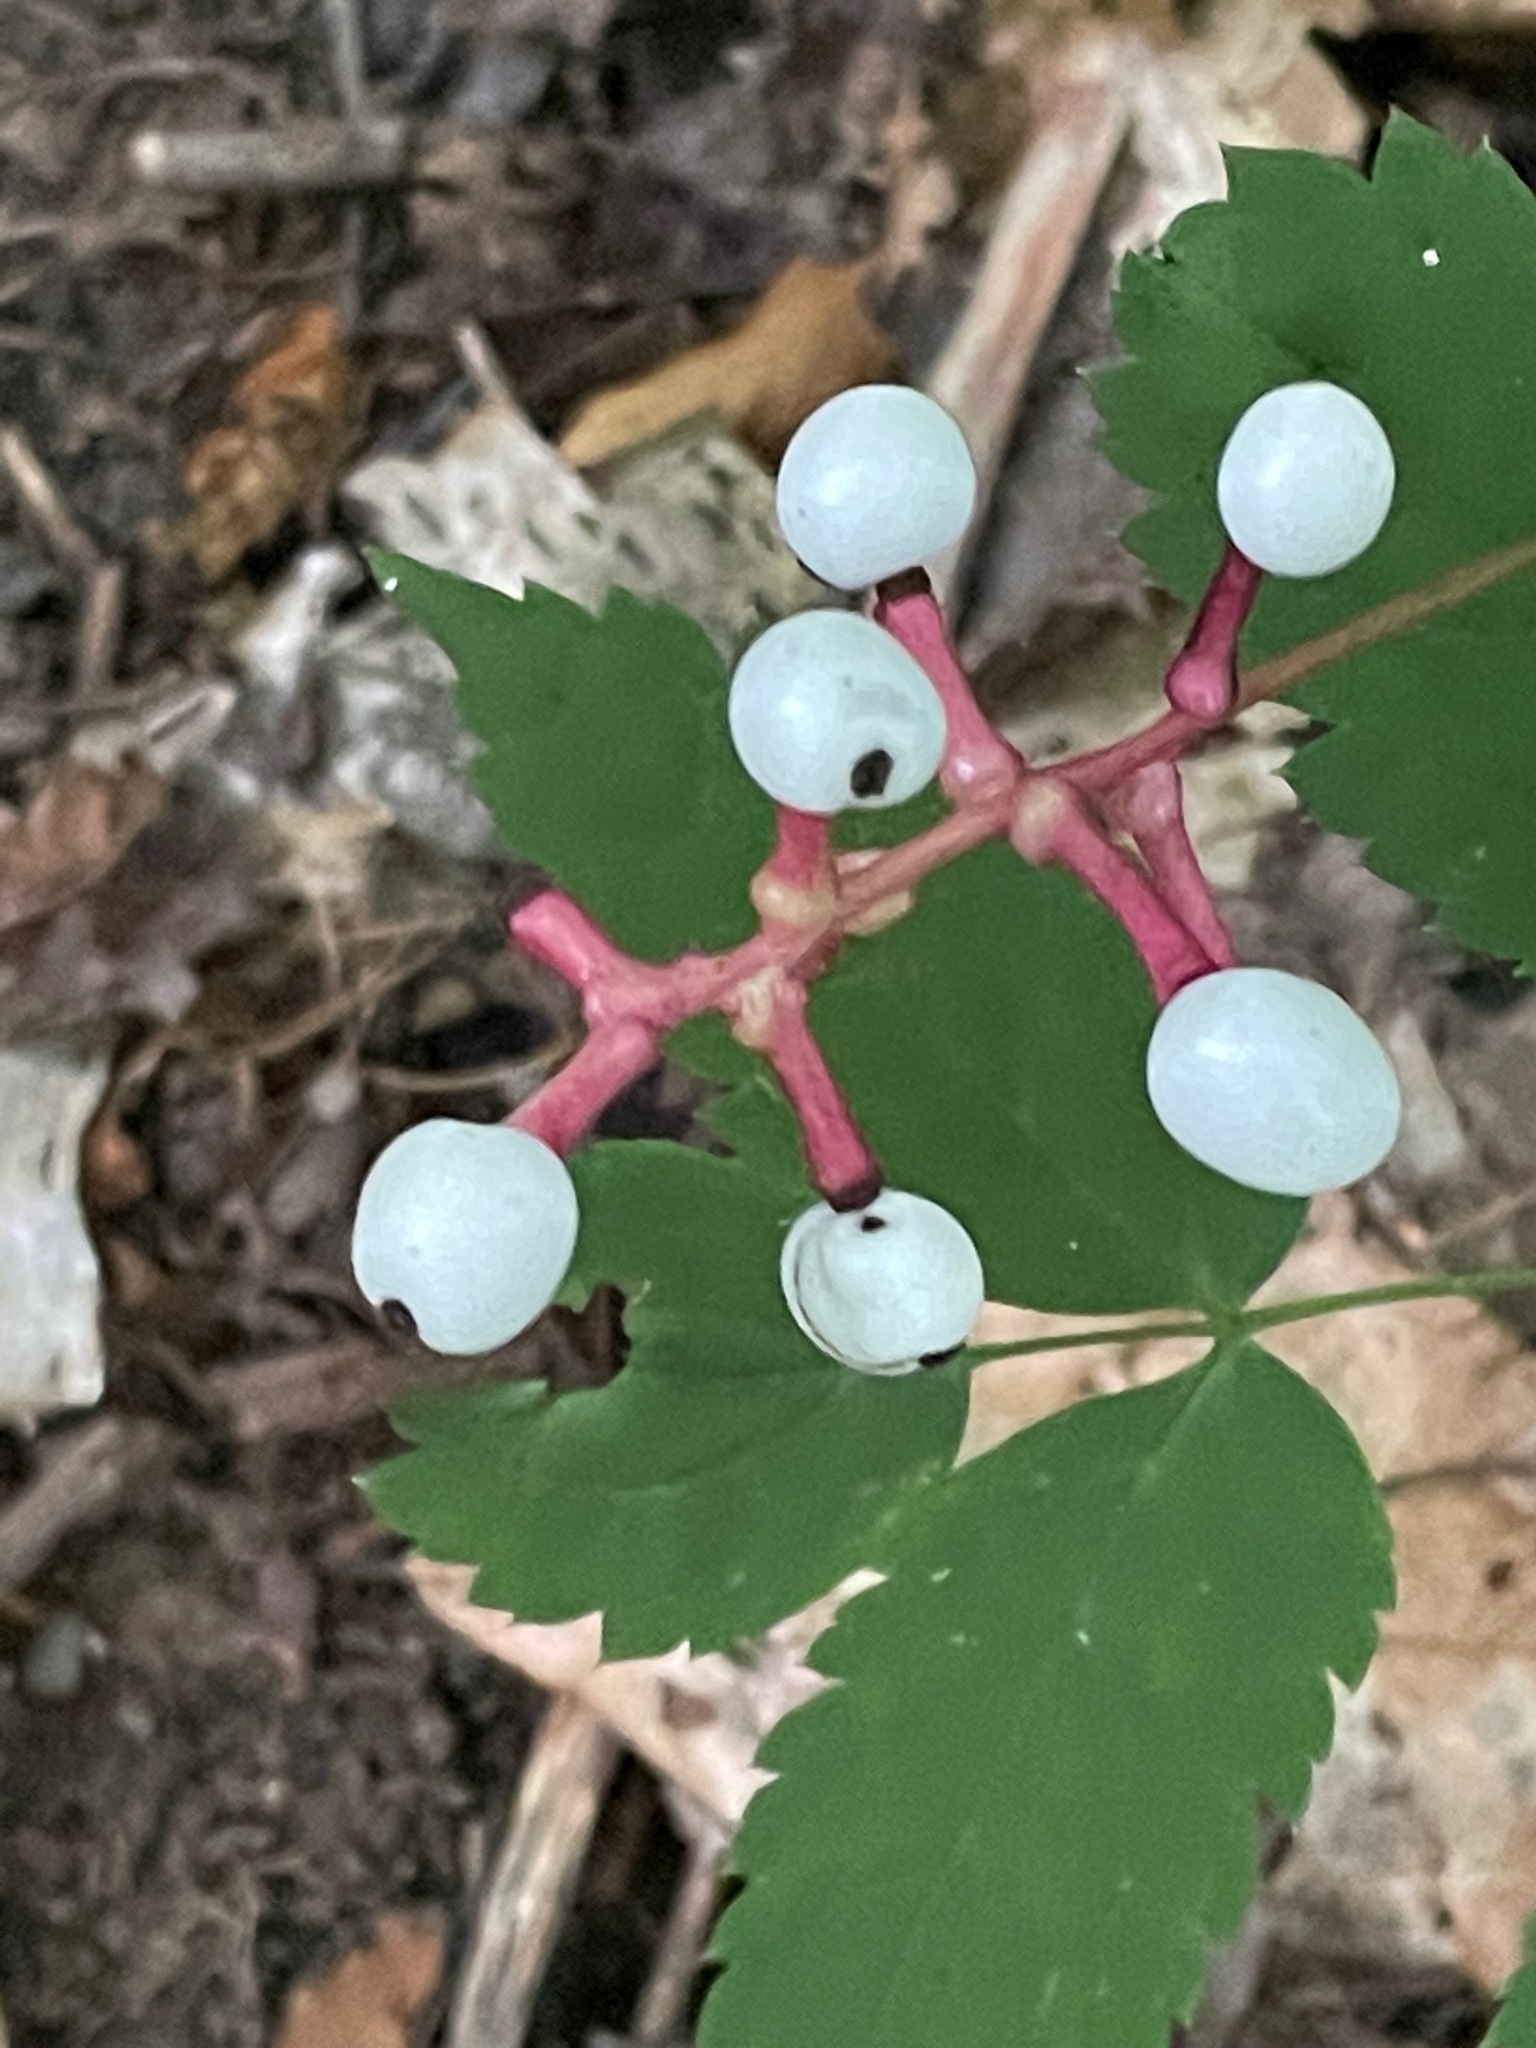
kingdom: Plantae
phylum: Tracheophyta
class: Magnoliopsida
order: Ranunculales
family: Ranunculaceae
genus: Actaea
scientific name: Actaea pachypoda
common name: Doll's-eyes
